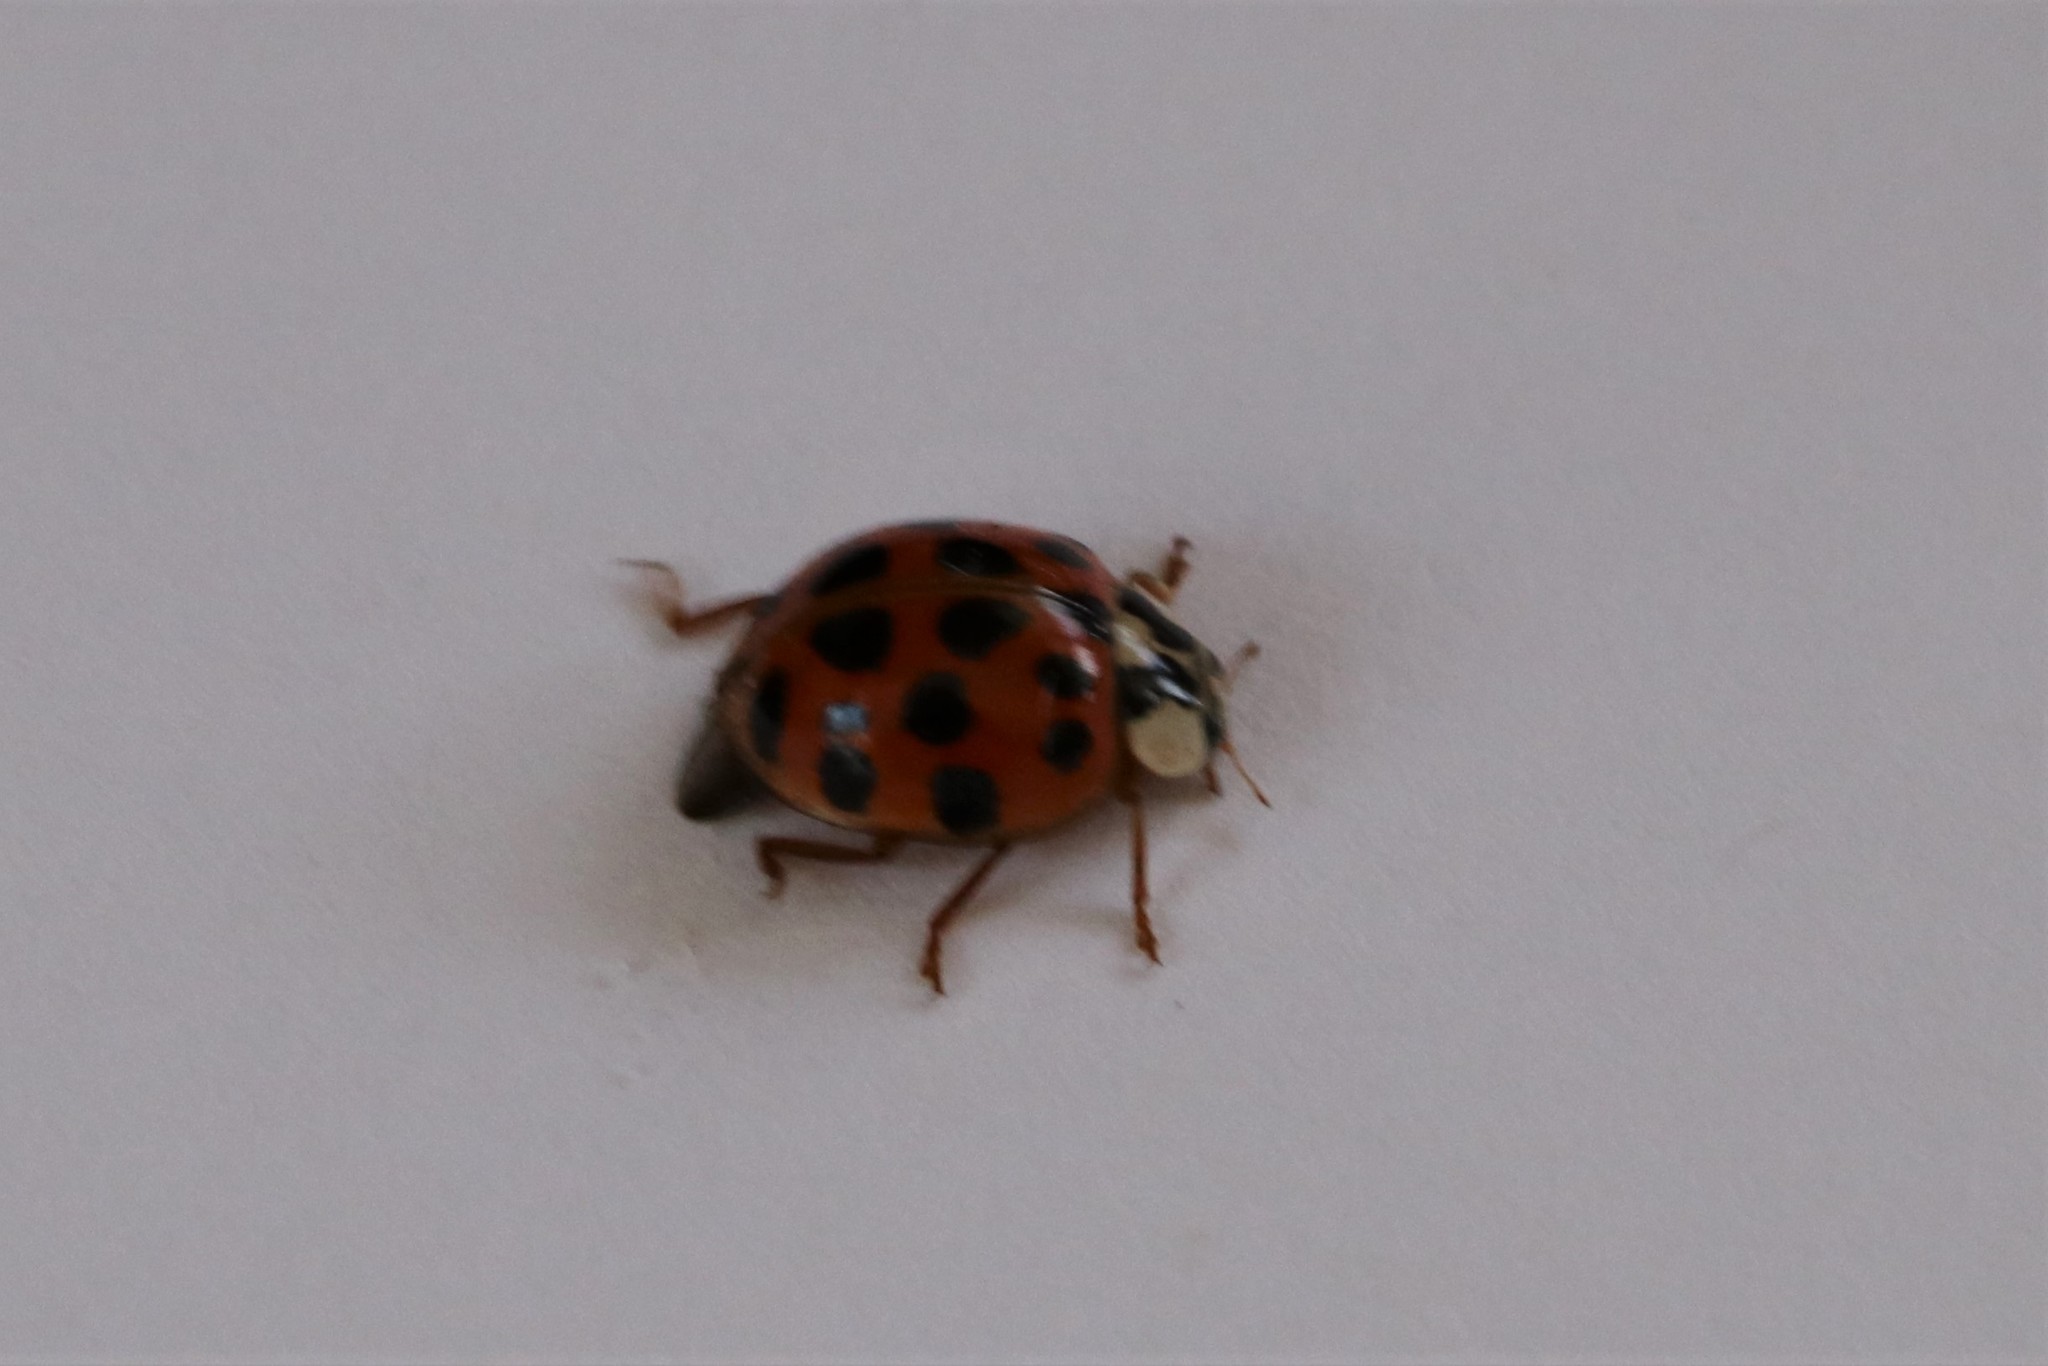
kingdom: Animalia
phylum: Arthropoda
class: Insecta
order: Coleoptera
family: Coccinellidae
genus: Harmonia
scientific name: Harmonia axyridis
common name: Harlequin ladybird
